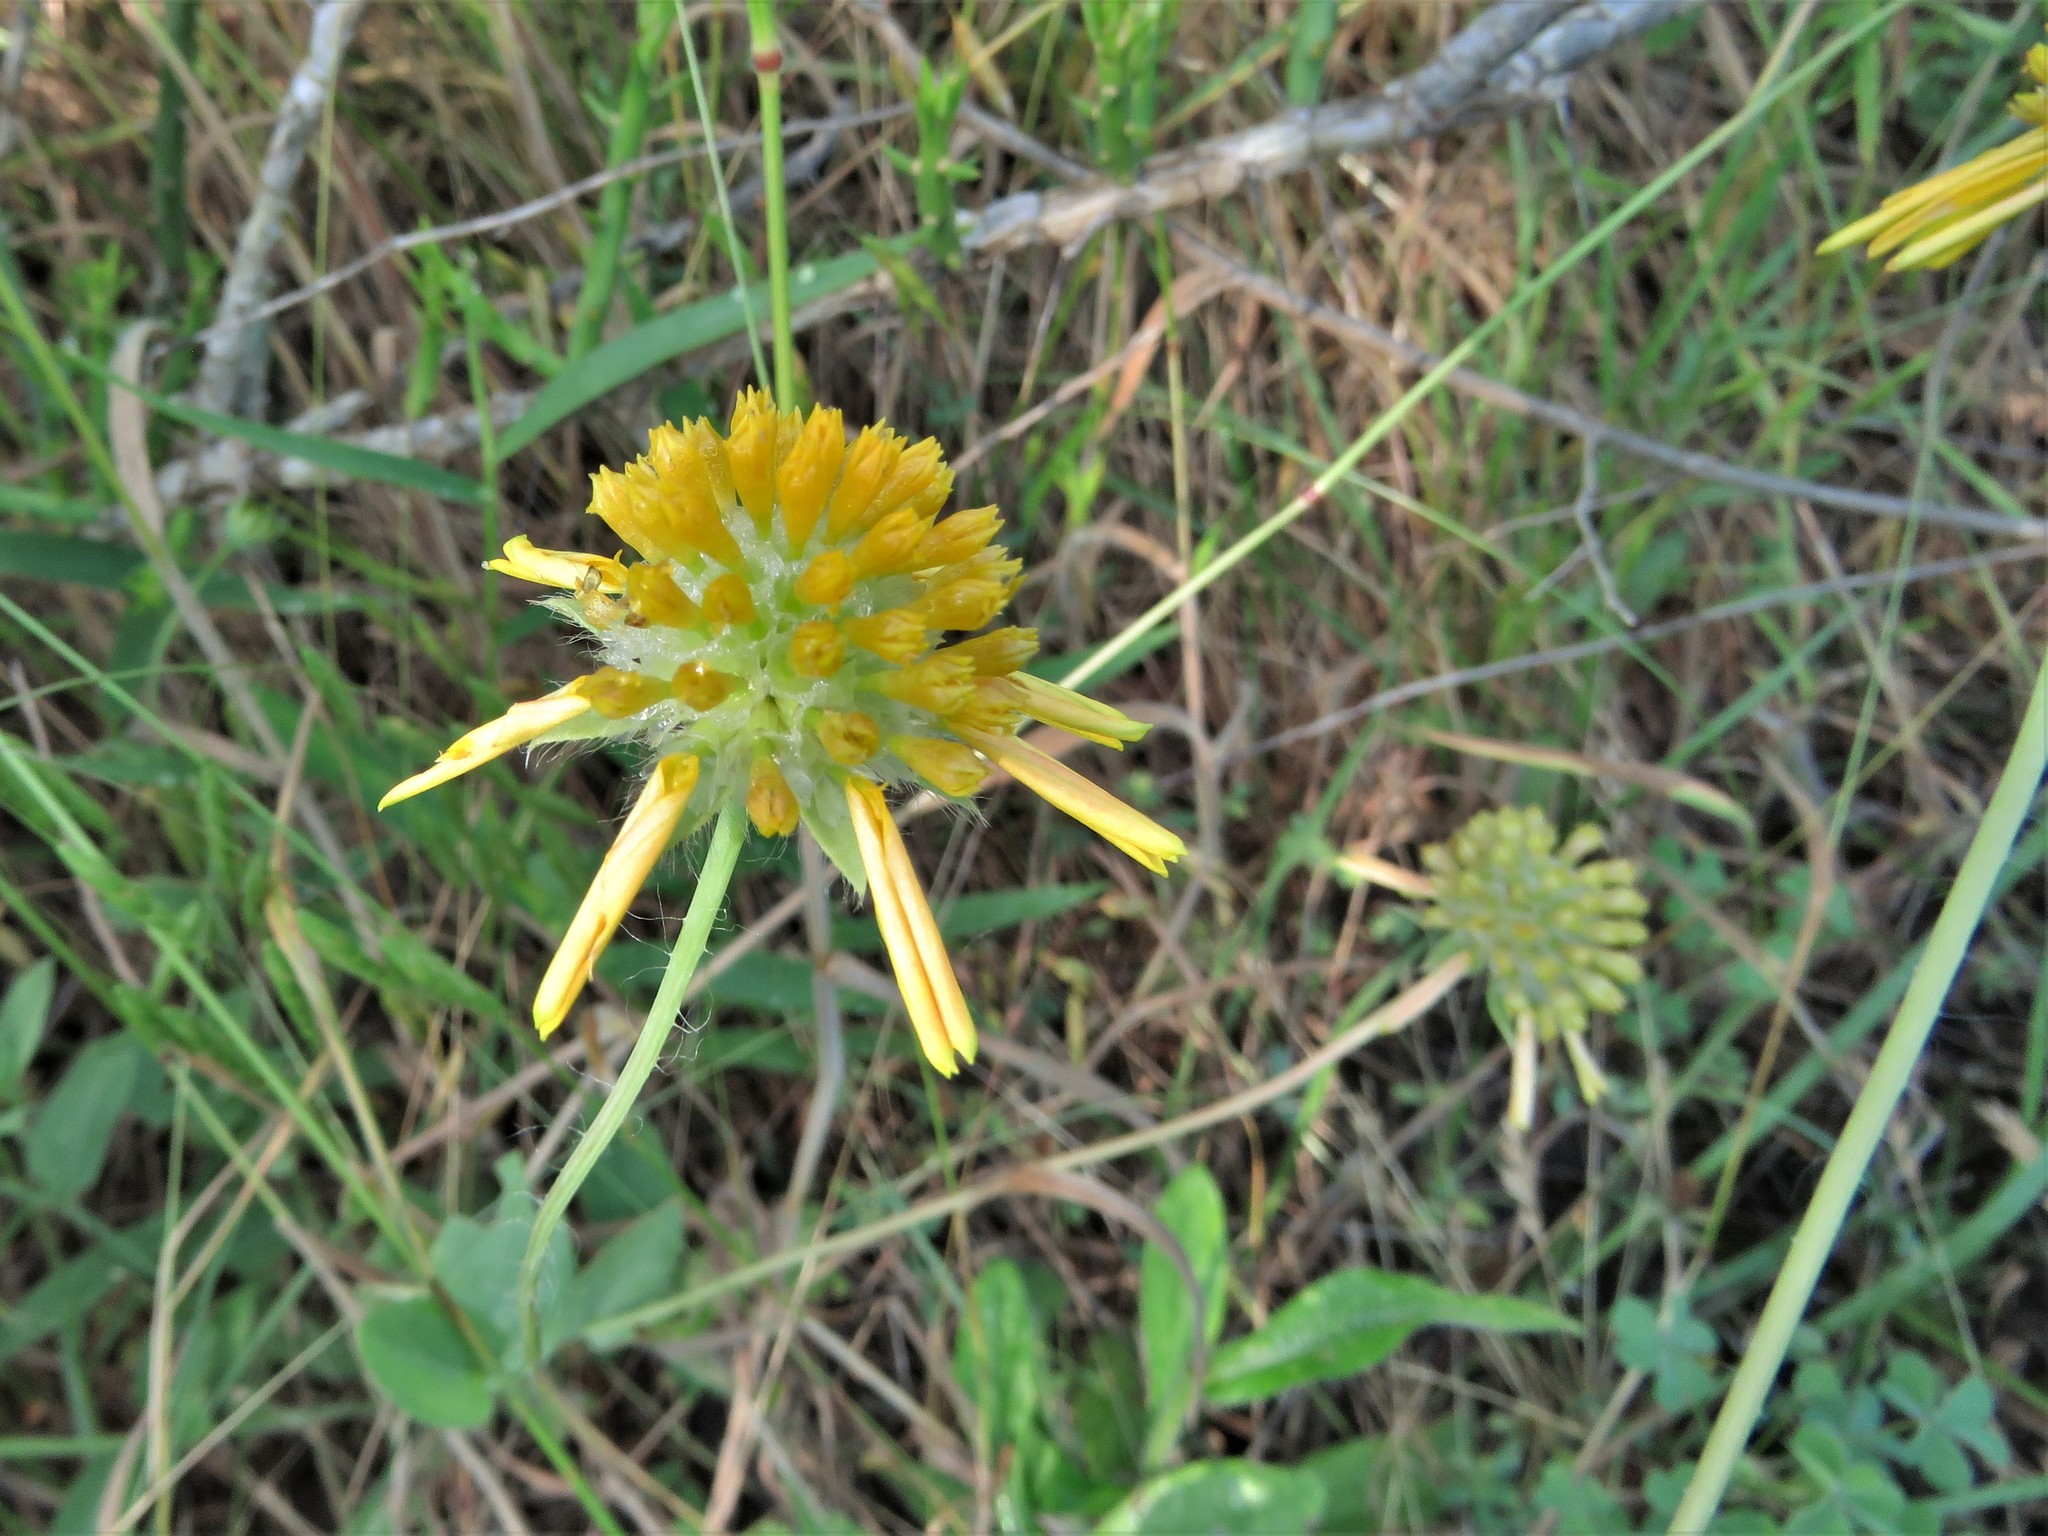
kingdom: Plantae
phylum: Tracheophyta
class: Magnoliopsida
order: Asterales
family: Asteraceae
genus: Amblyolepis
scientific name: Amblyolepis setigera
